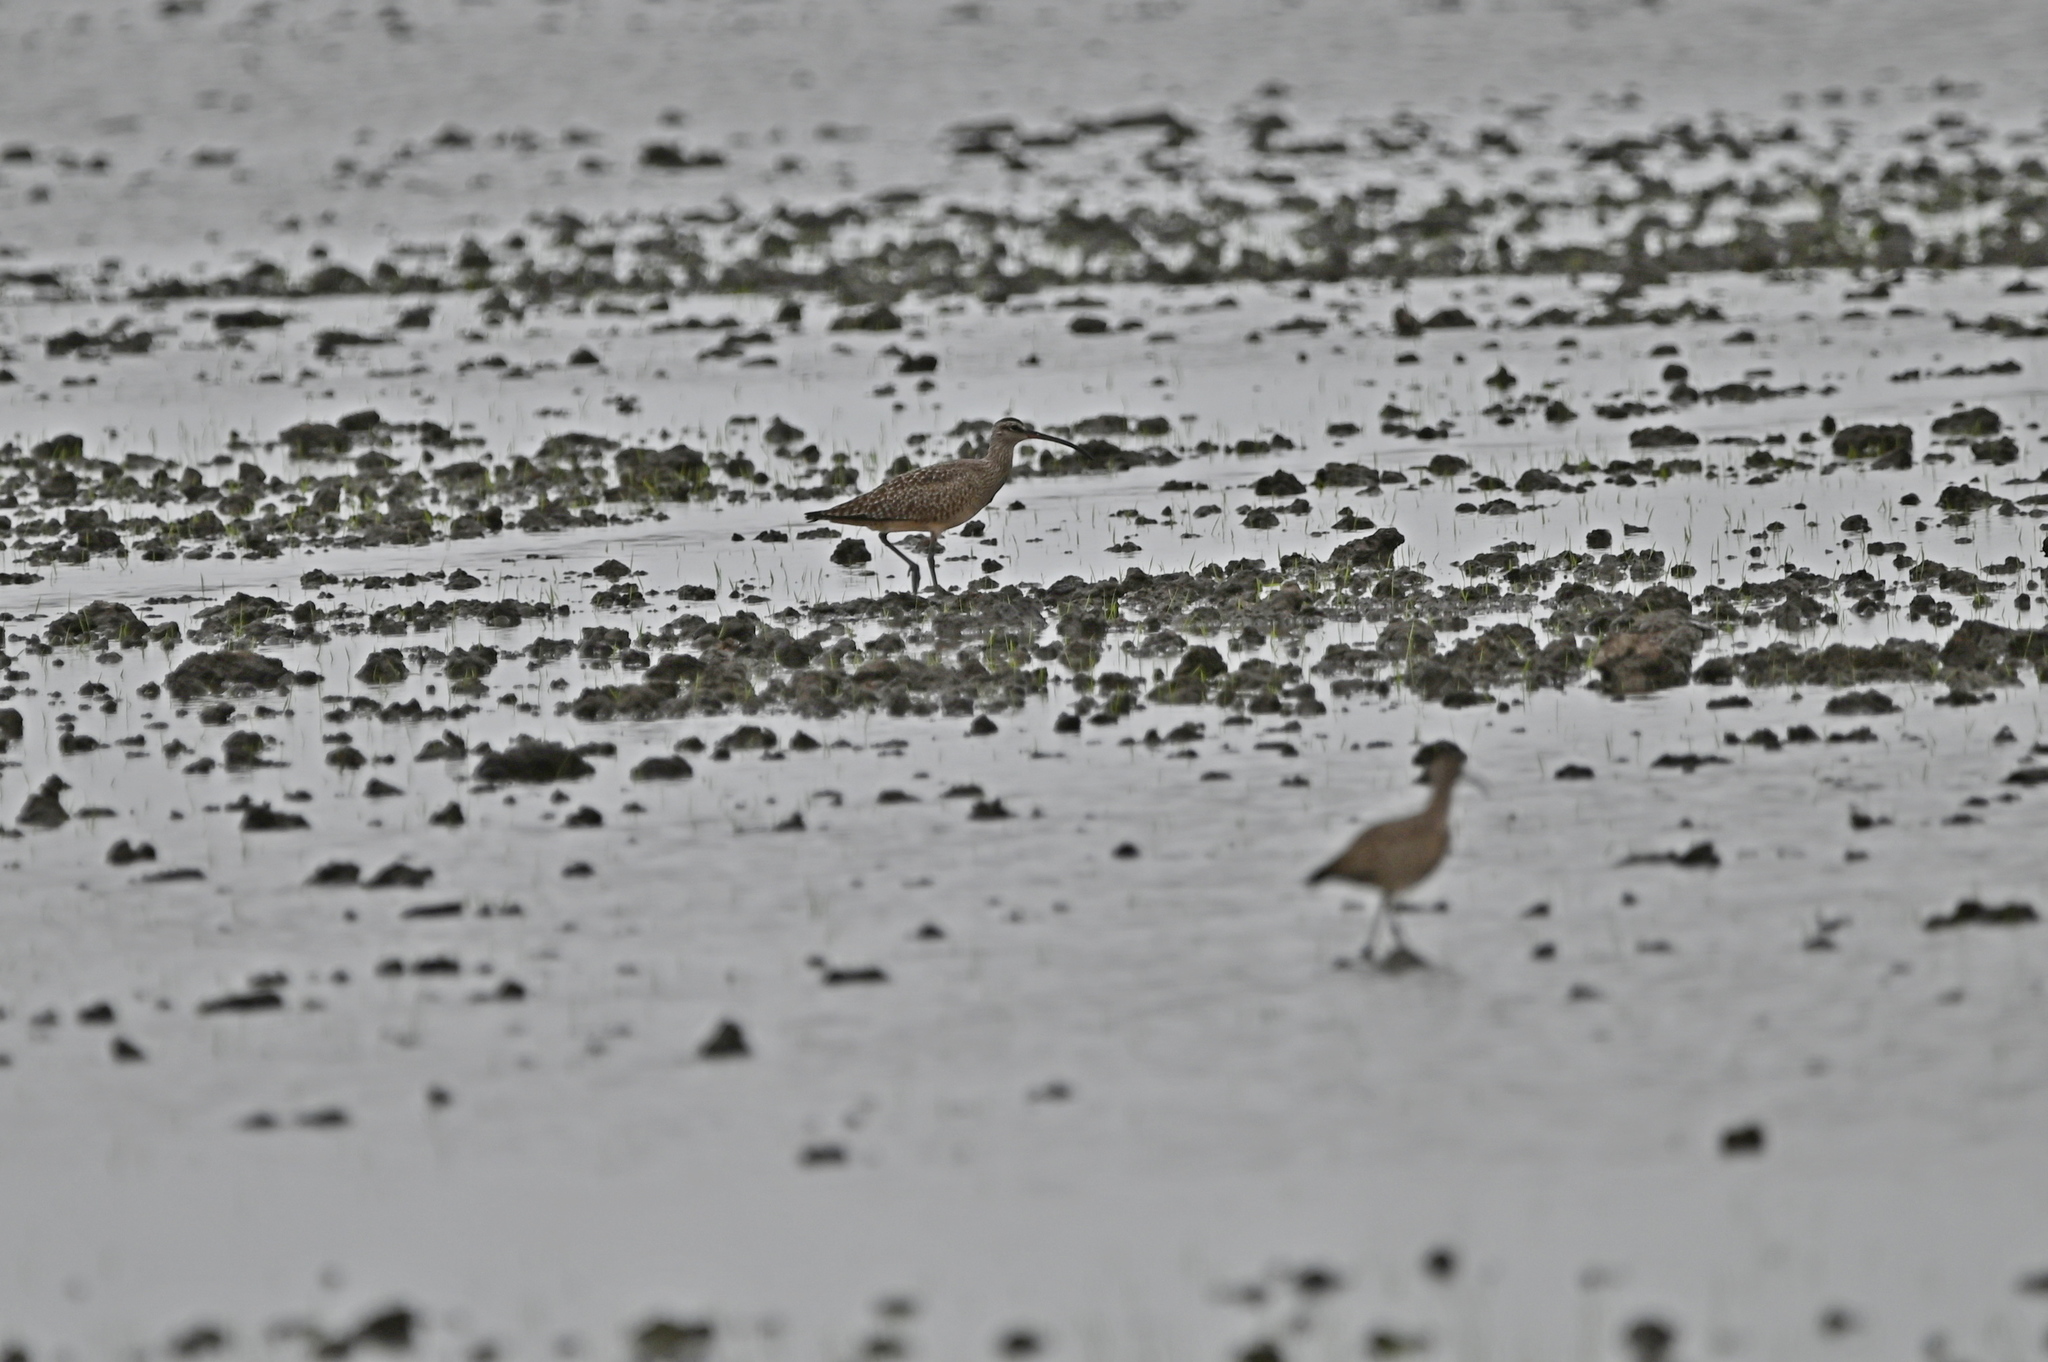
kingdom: Animalia
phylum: Chordata
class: Aves
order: Charadriiformes
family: Scolopacidae
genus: Numenius
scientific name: Numenius phaeopus
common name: Whimbrel
